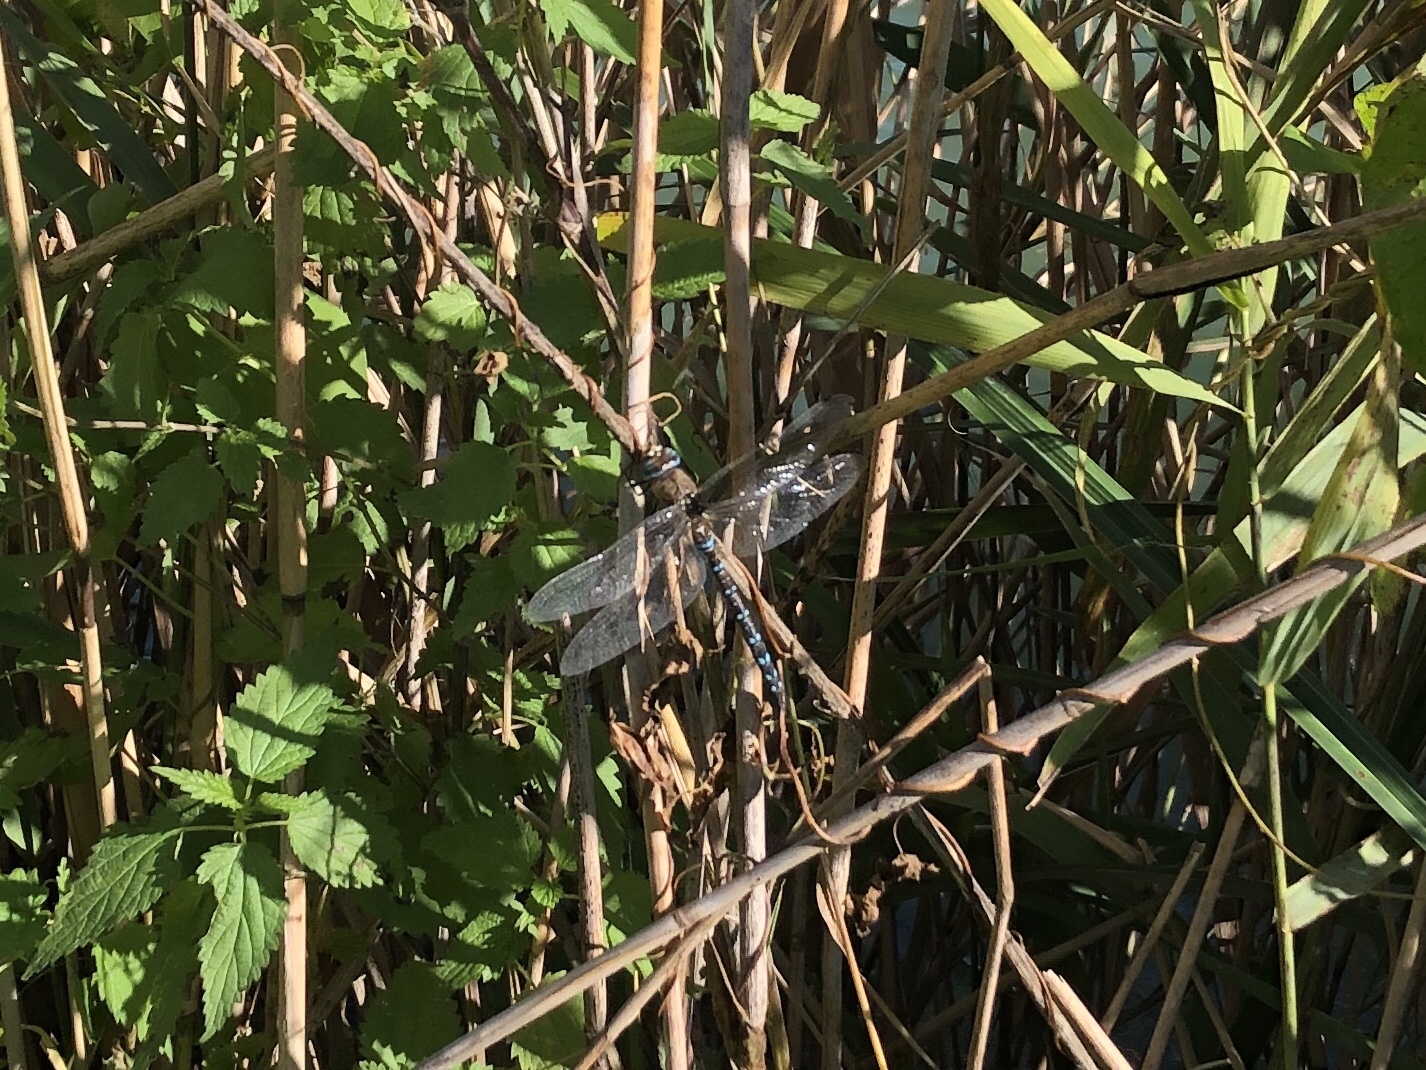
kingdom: Animalia
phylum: Arthropoda
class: Insecta
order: Odonata
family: Aeshnidae
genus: Aeshna
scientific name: Aeshna mixta
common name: Migrant hawker
